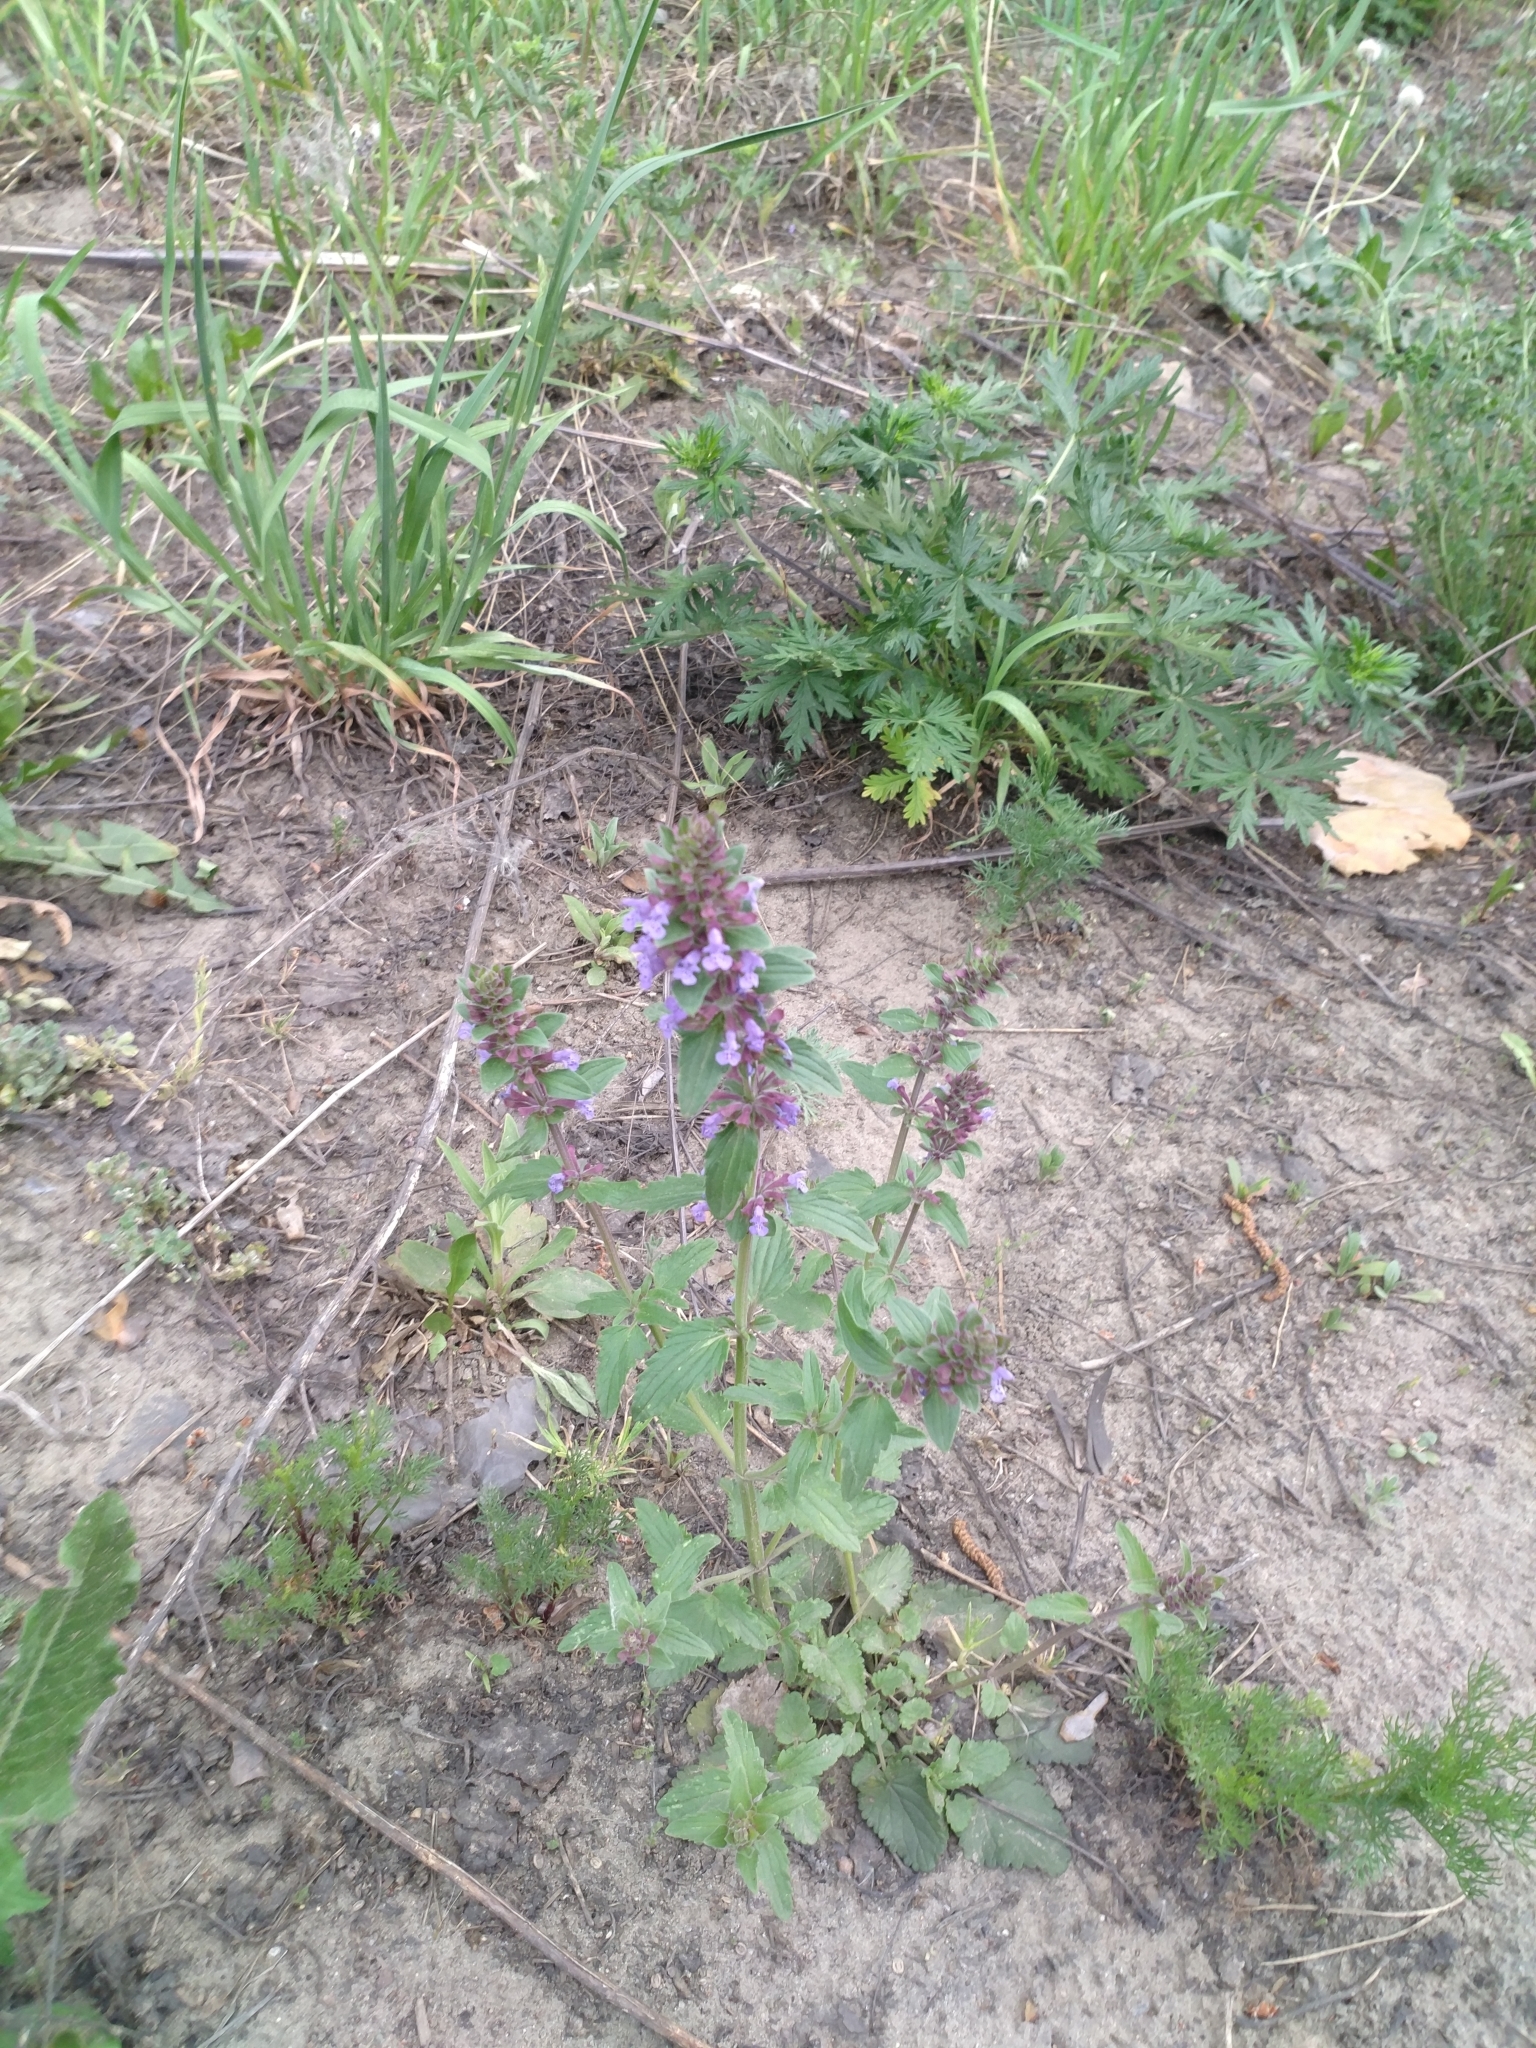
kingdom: Plantae
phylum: Tracheophyta
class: Magnoliopsida
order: Lamiales
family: Lamiaceae
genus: Dracocephalum
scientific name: Dracocephalum nutans
